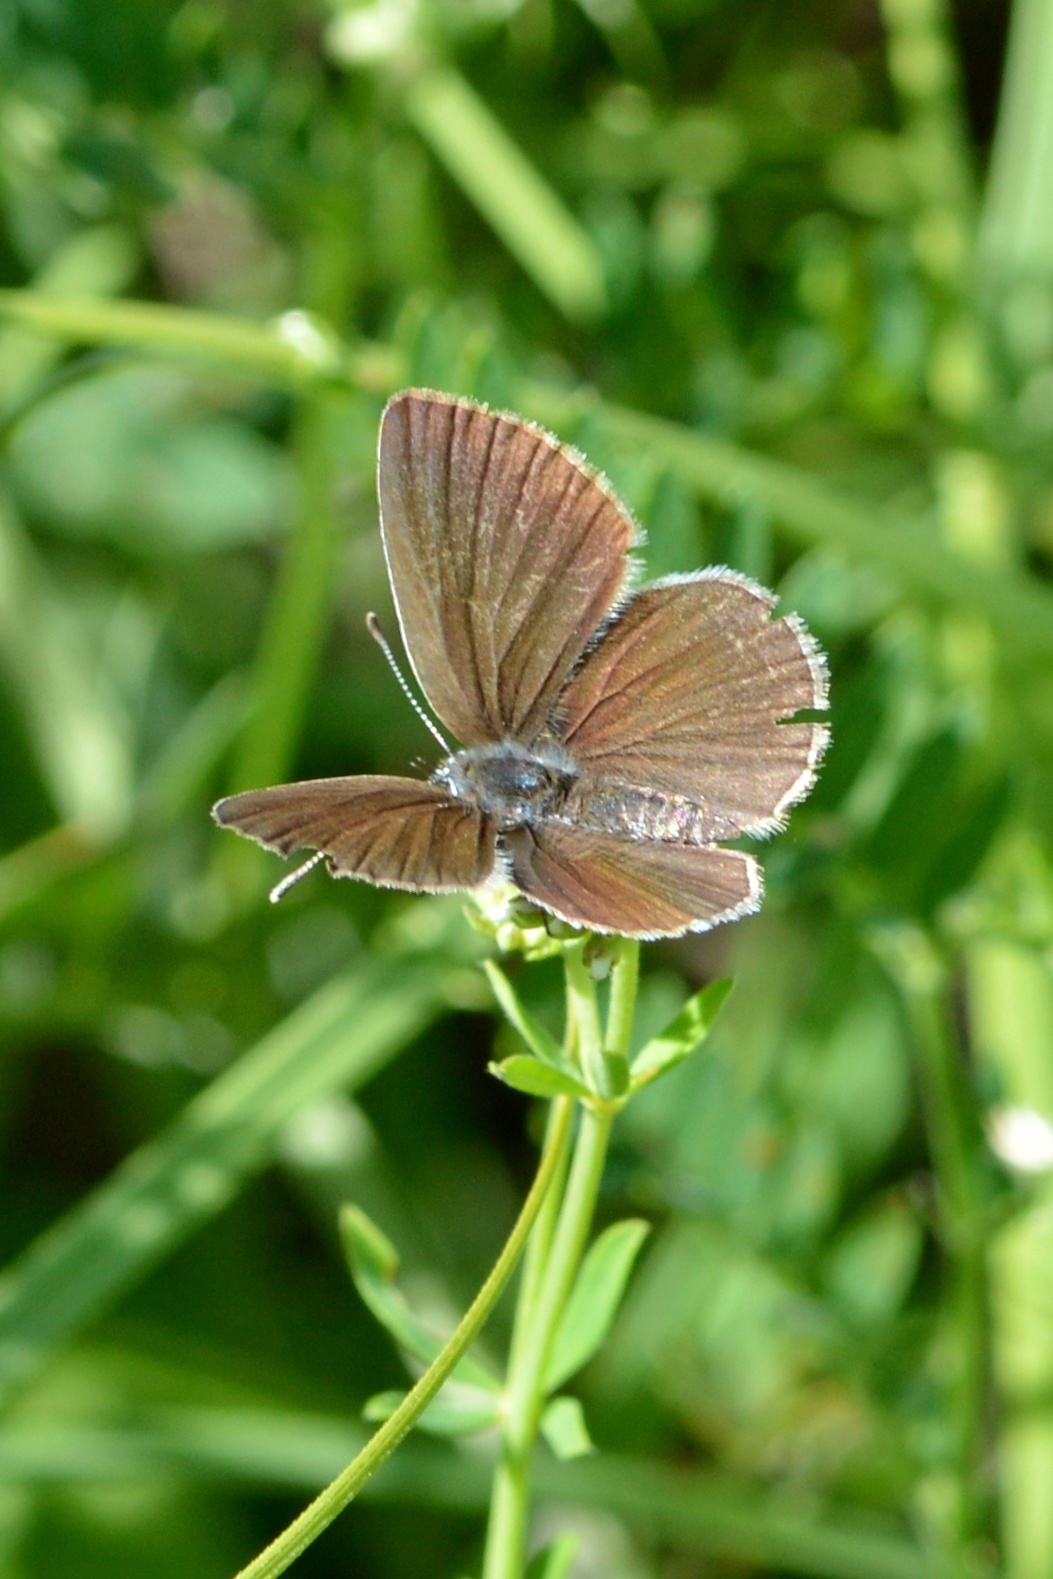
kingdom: Animalia
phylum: Arthropoda
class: Insecta
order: Lepidoptera
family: Lycaenidae
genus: Cupido
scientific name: Cupido minimus
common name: Small blue
